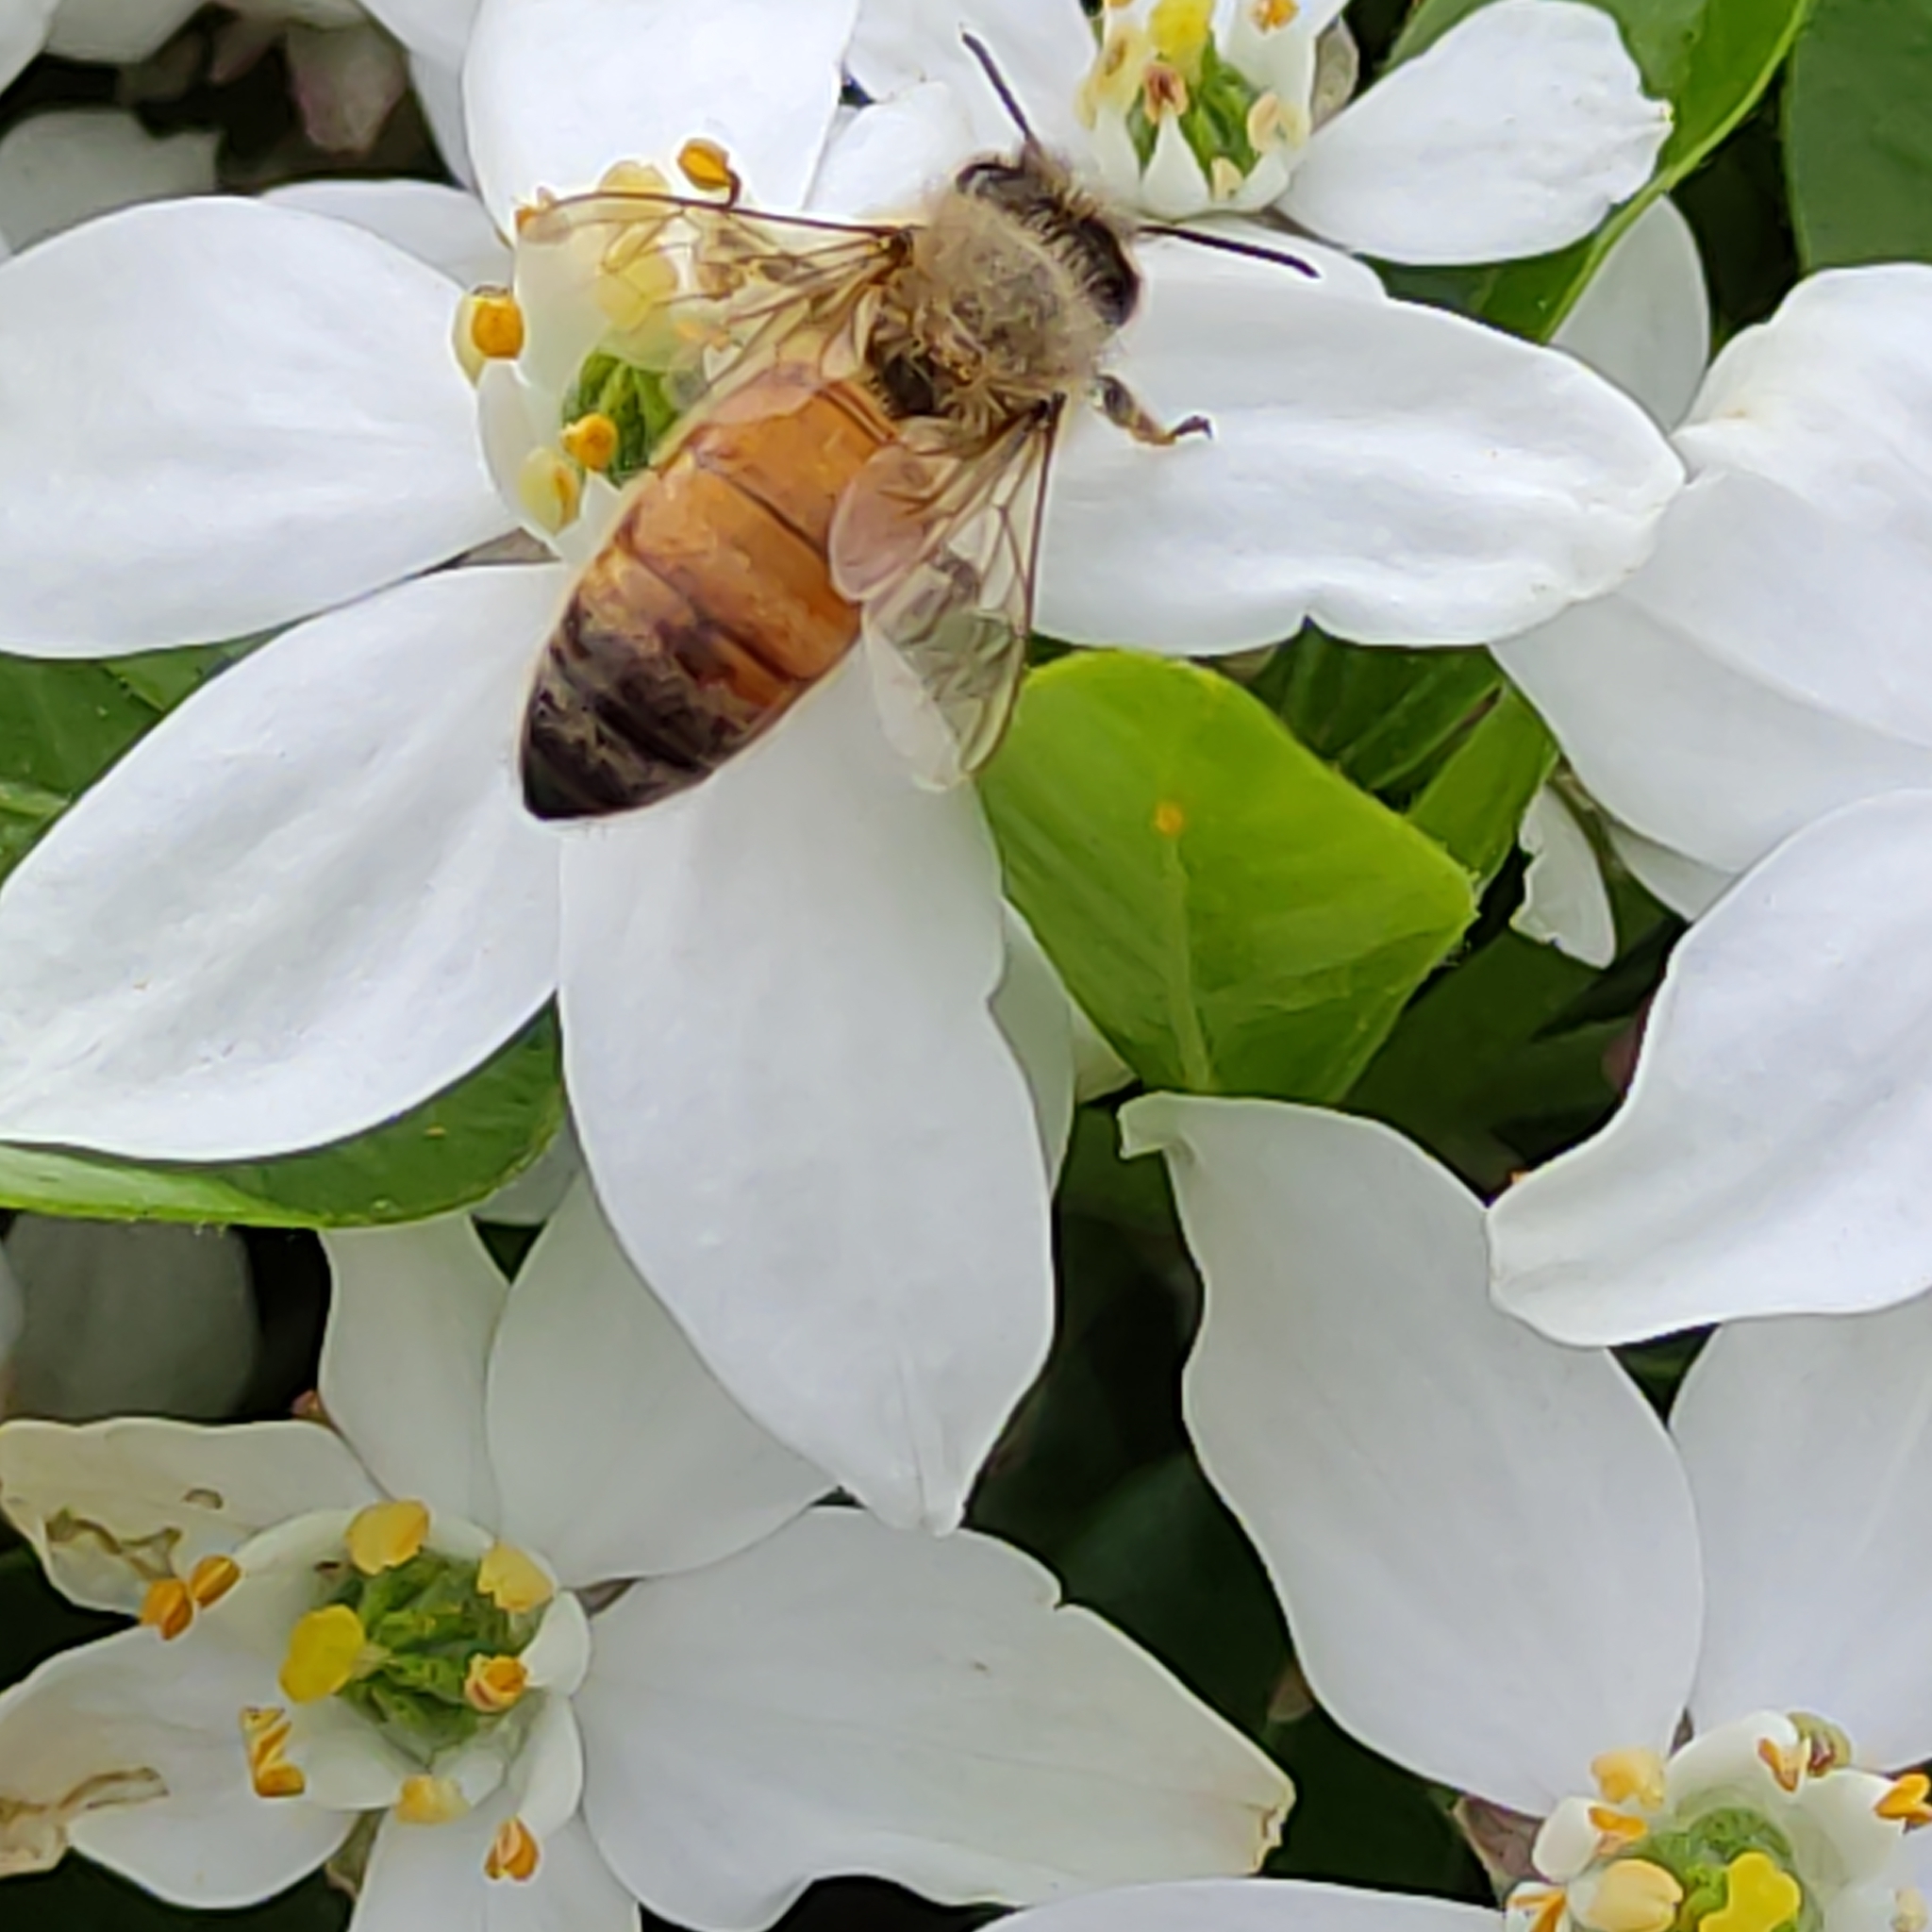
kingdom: Animalia
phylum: Arthropoda
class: Insecta
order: Hymenoptera
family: Apidae
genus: Apis
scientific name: Apis mellifera
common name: Honey bee
